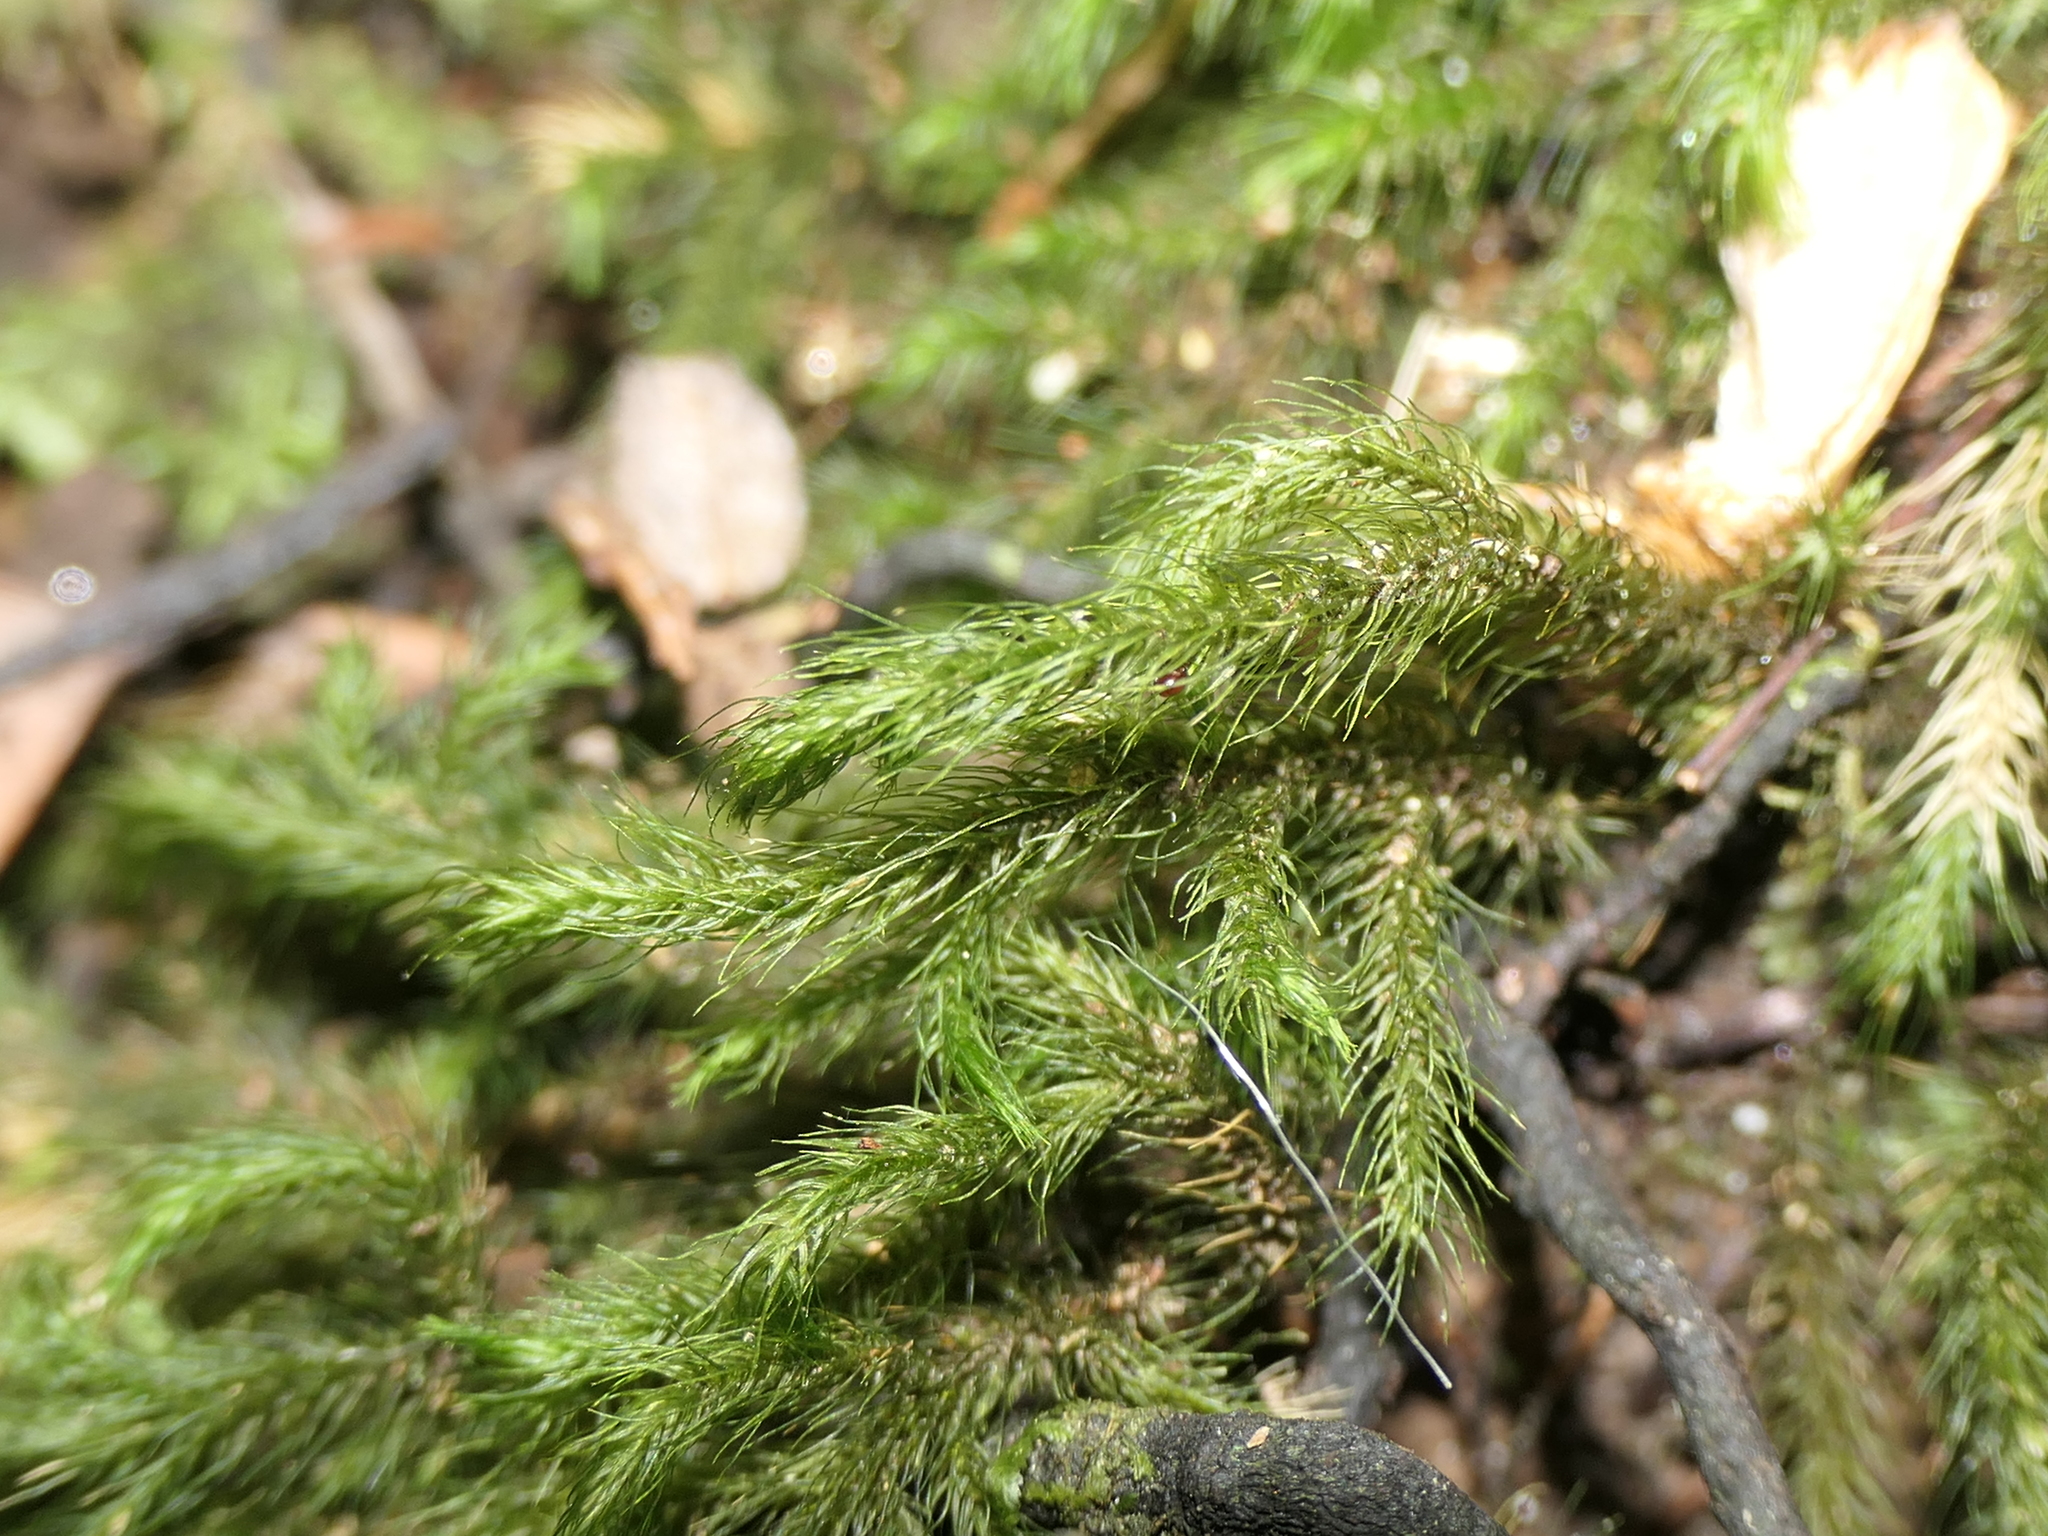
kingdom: Plantae
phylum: Bryophyta
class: Bryopsida
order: Hypnales
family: Neckeraceae
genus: Echinodiopsis
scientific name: Echinodiopsis hispida
